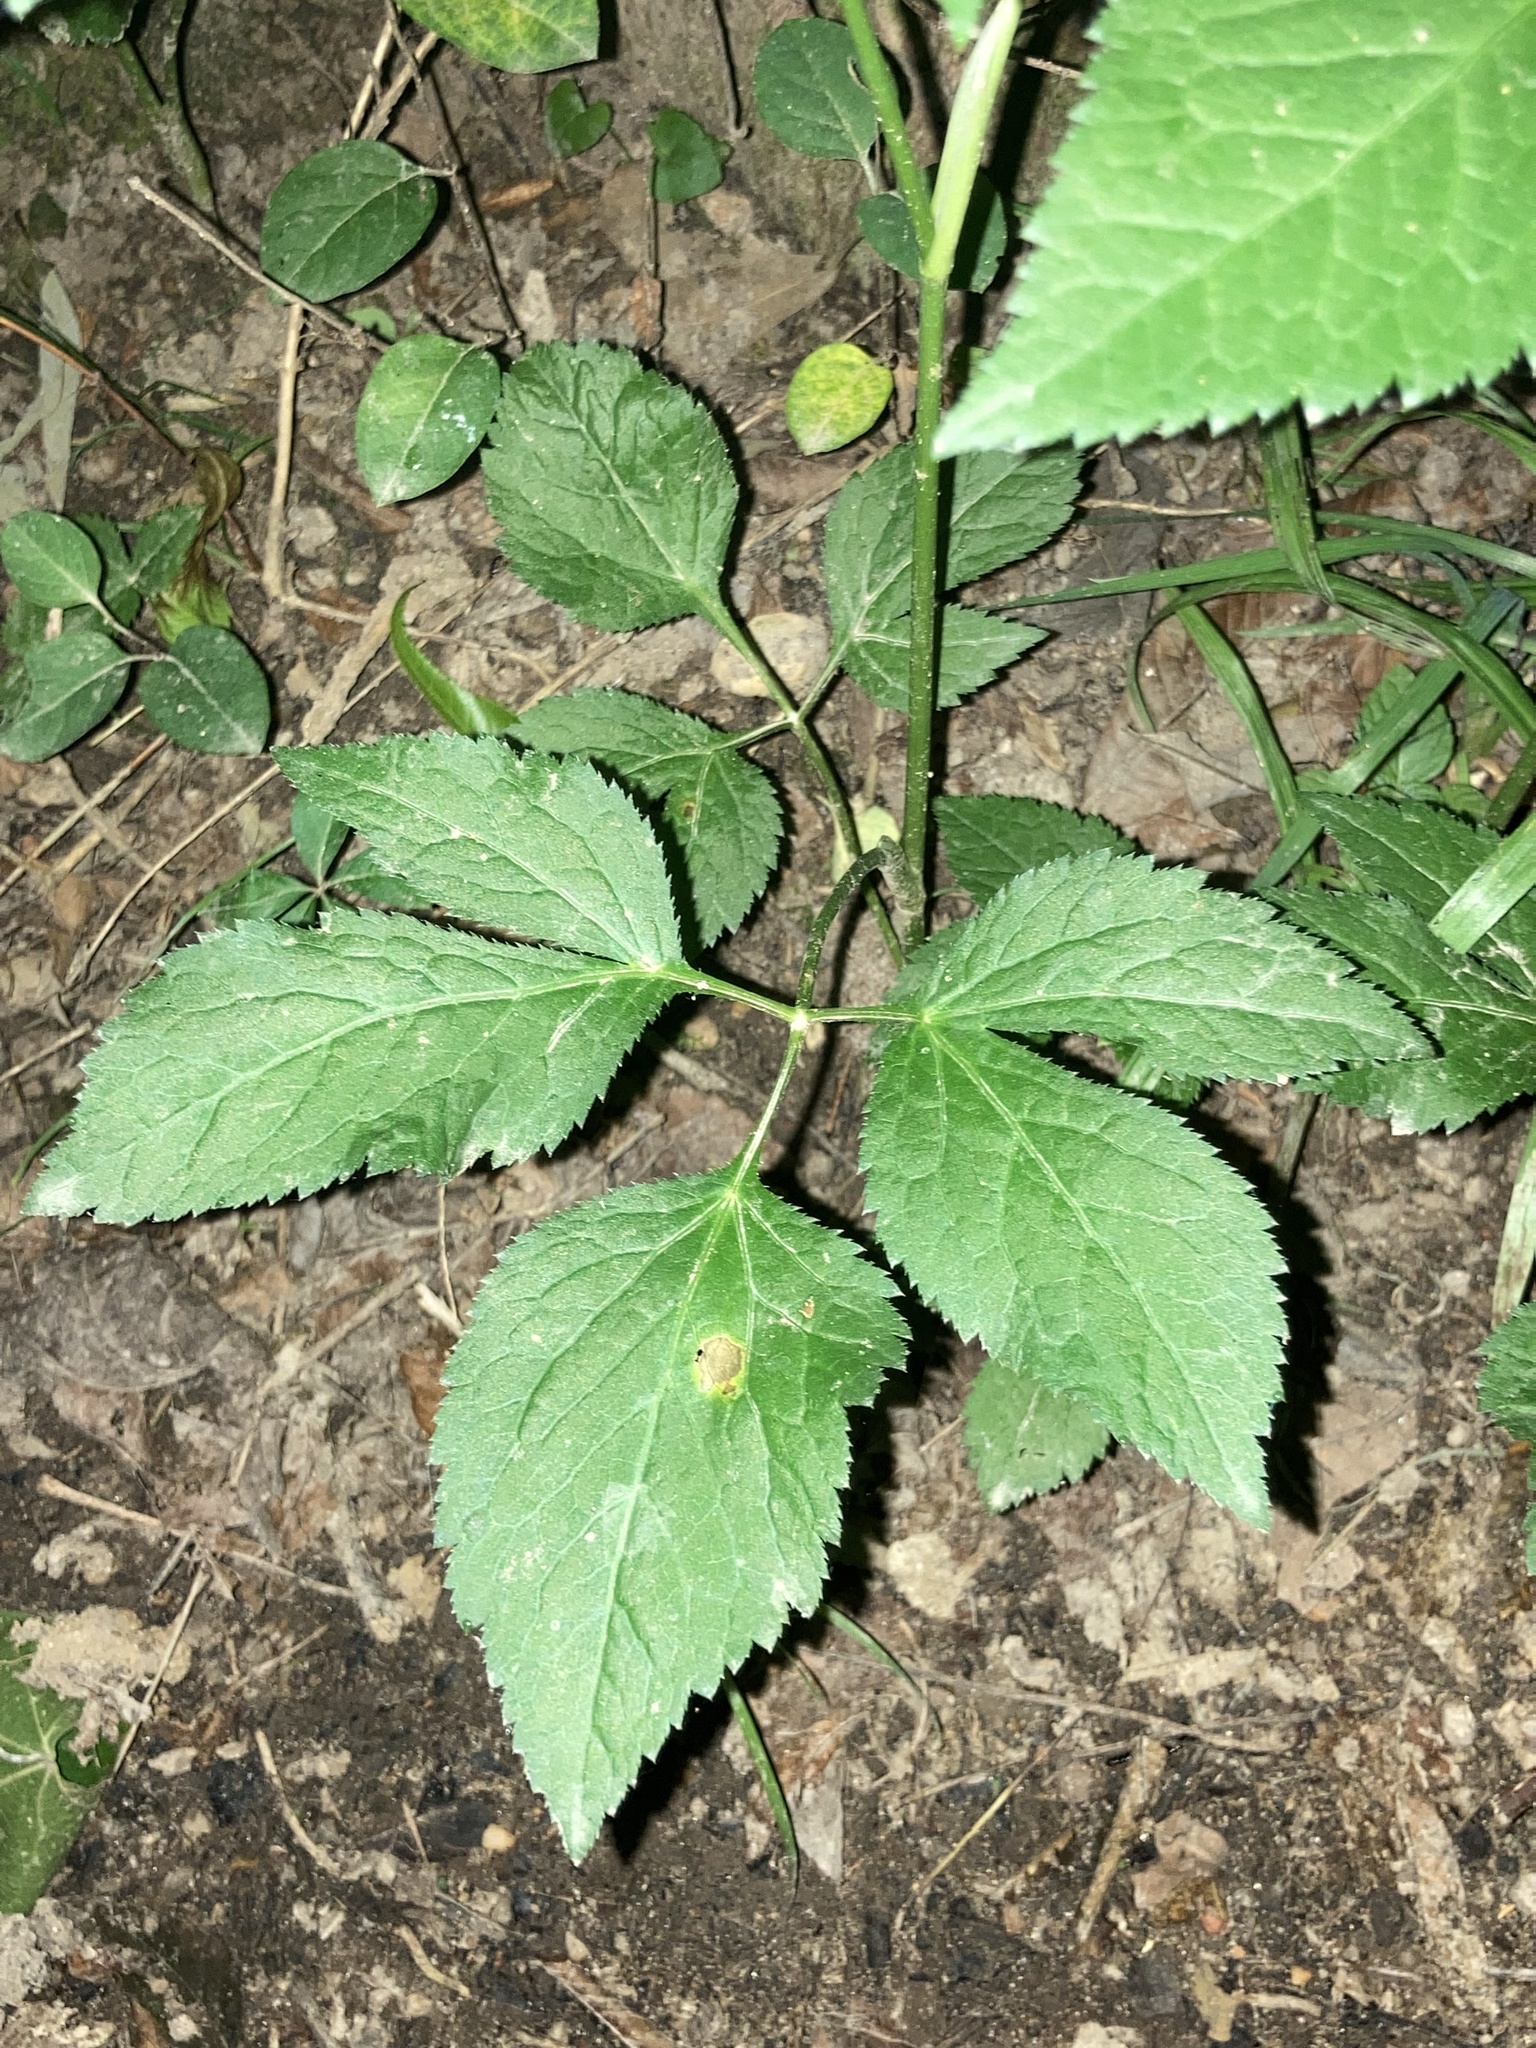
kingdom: Plantae
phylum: Tracheophyta
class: Magnoliopsida
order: Apiales
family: Apiaceae
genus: Cryptotaenia
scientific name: Cryptotaenia canadensis
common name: Honewort
